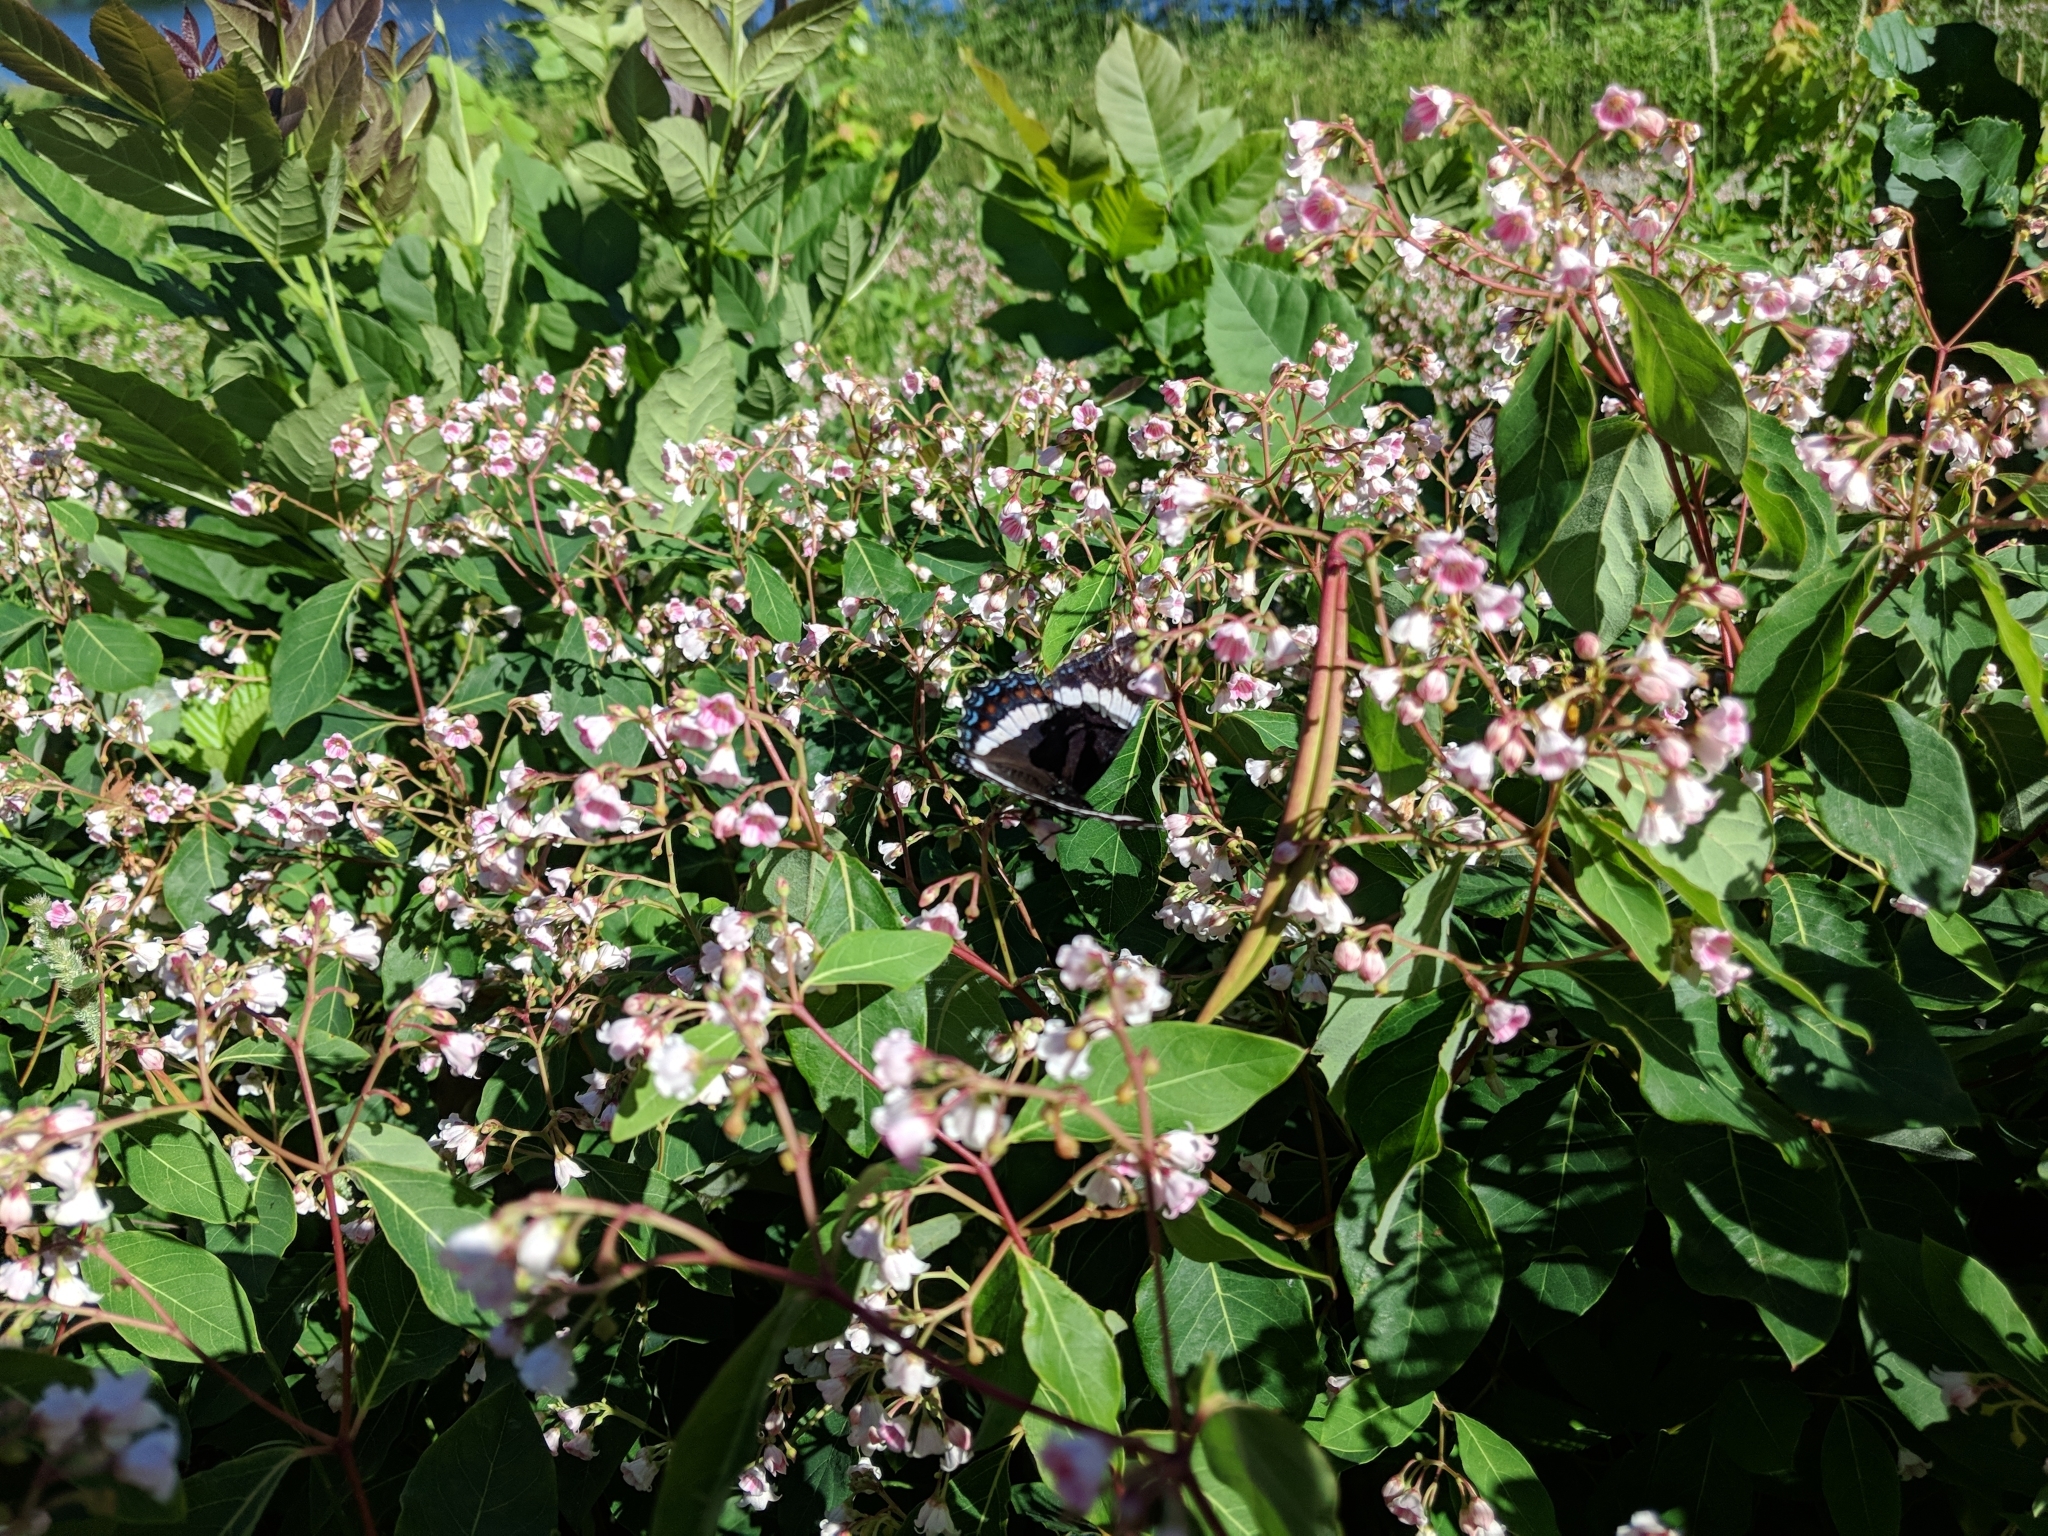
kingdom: Animalia
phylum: Arthropoda
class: Insecta
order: Lepidoptera
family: Nymphalidae
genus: Limenitis
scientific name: Limenitis arthemis
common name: Red-spotted admiral
